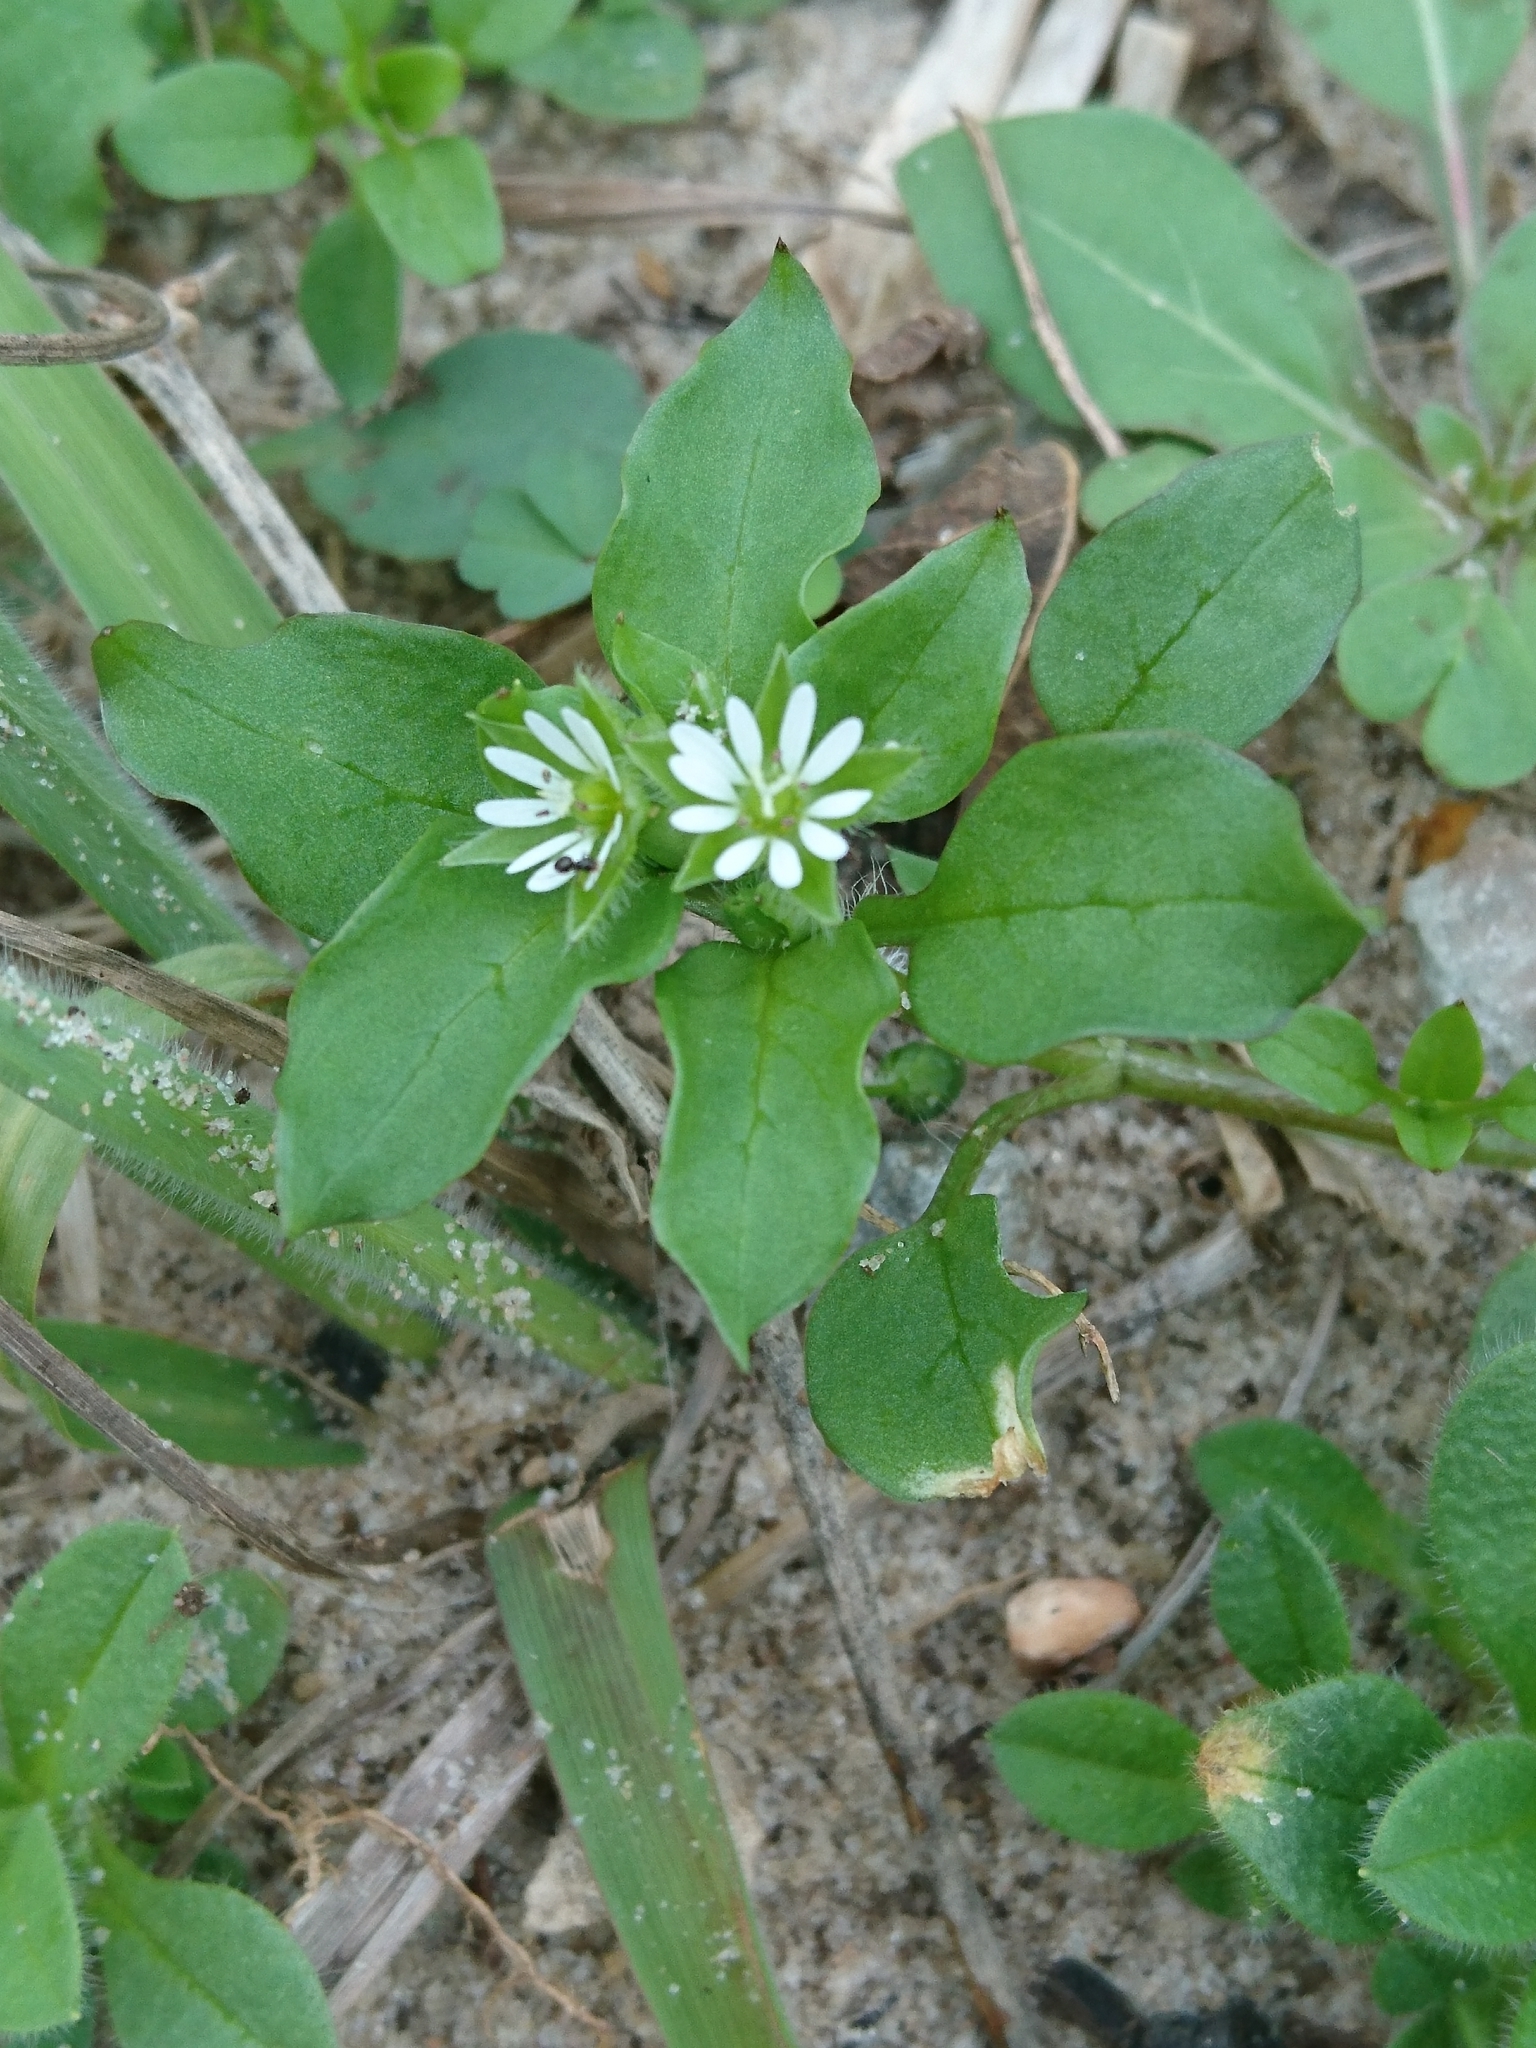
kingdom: Plantae
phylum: Tracheophyta
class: Magnoliopsida
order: Caryophyllales
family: Caryophyllaceae
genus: Stellaria
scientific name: Stellaria media
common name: Common chickweed
